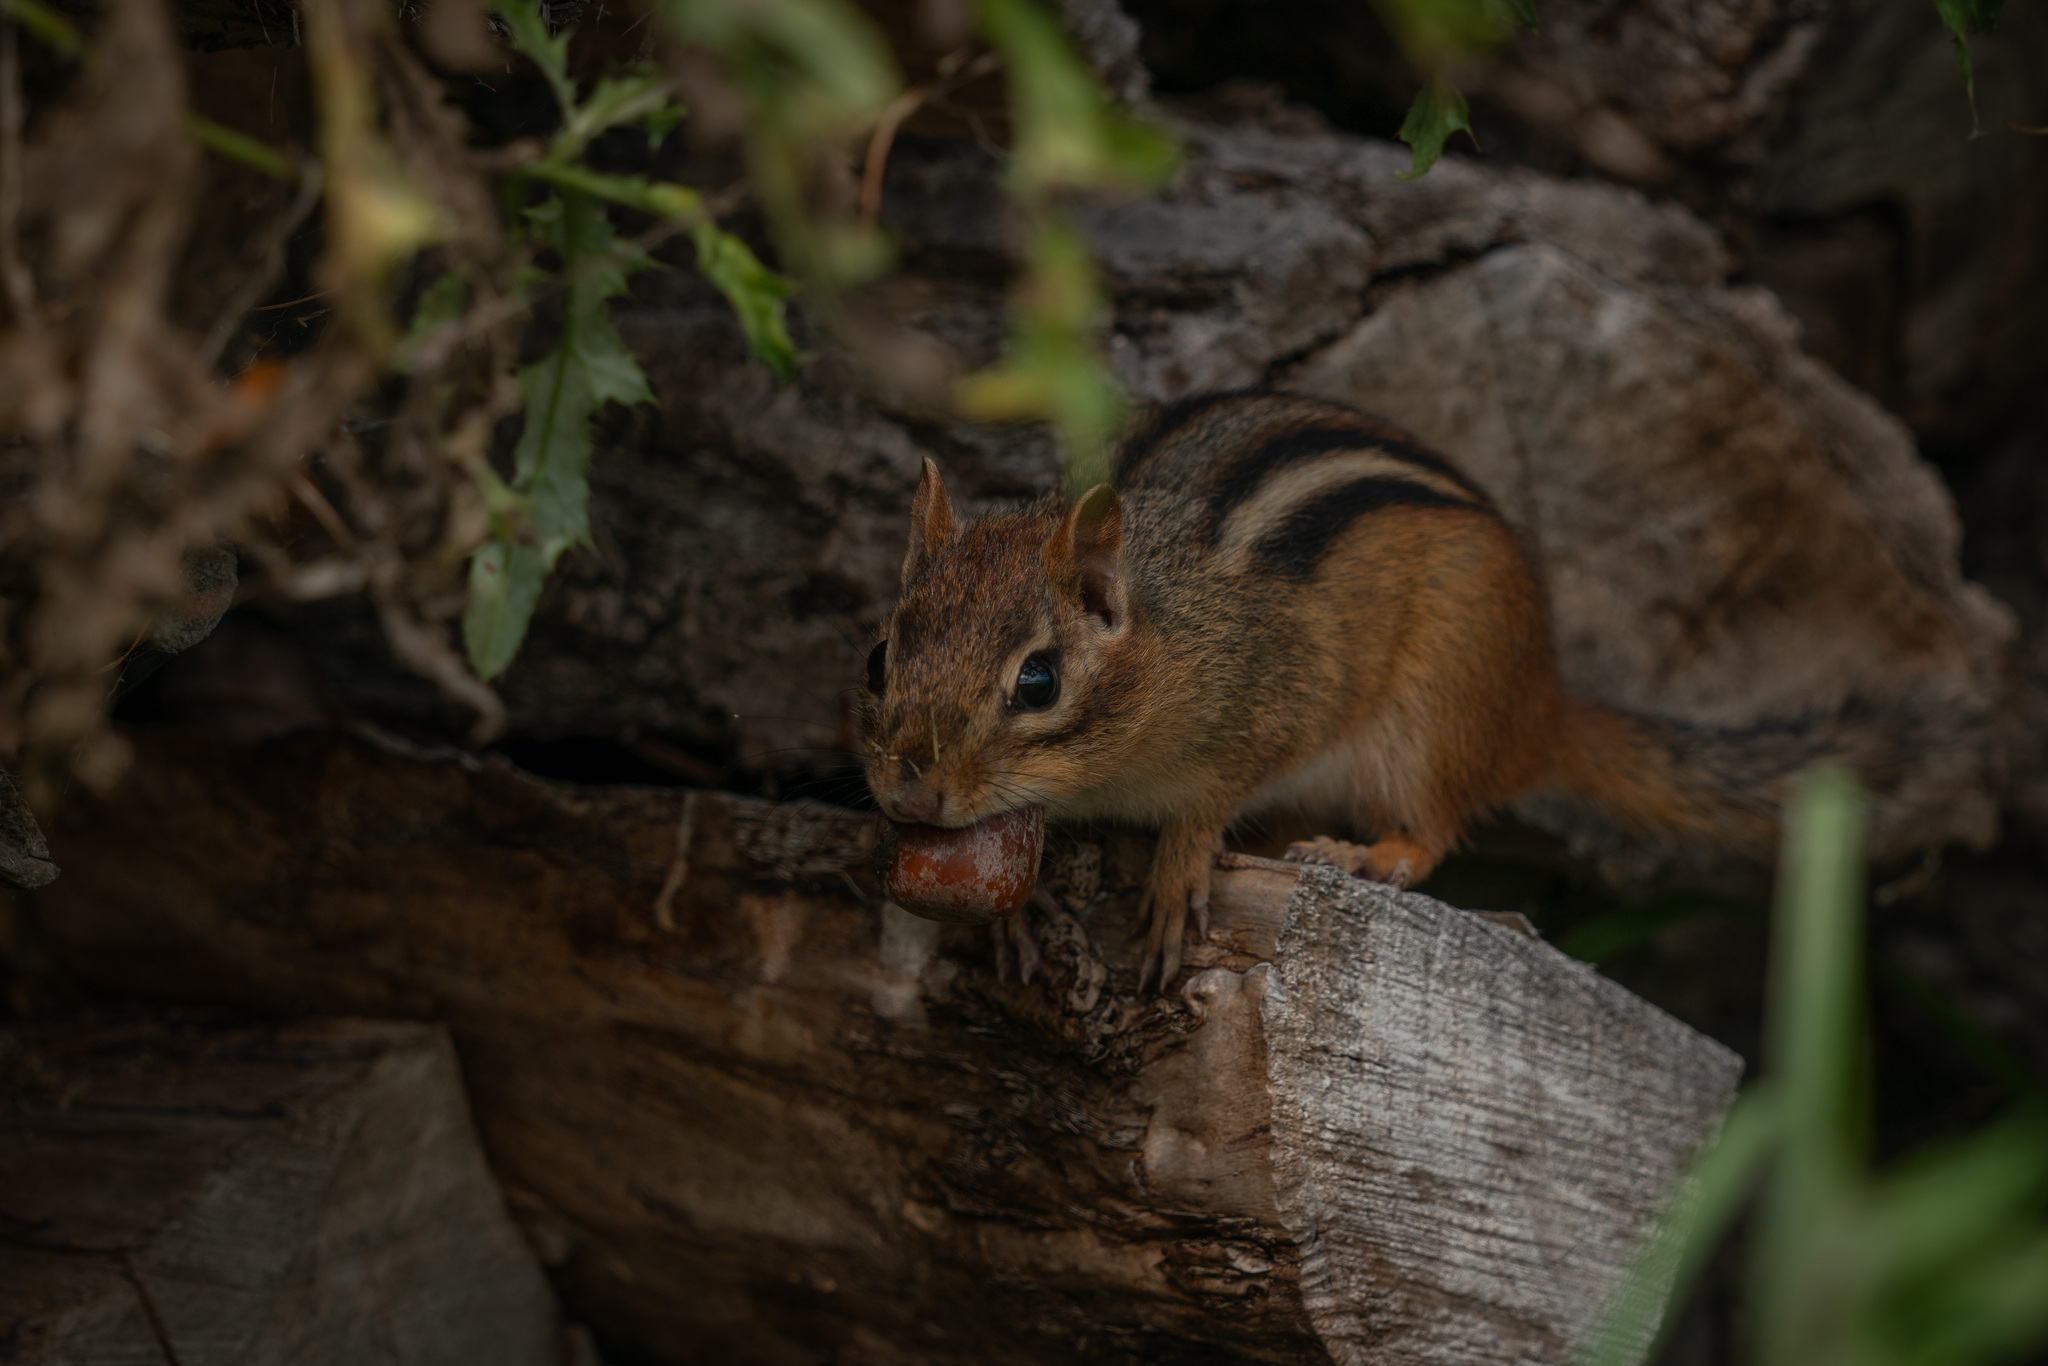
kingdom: Animalia
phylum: Chordata
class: Mammalia
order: Rodentia
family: Sciuridae
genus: Tamias
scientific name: Tamias striatus
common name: Eastern chipmunk
